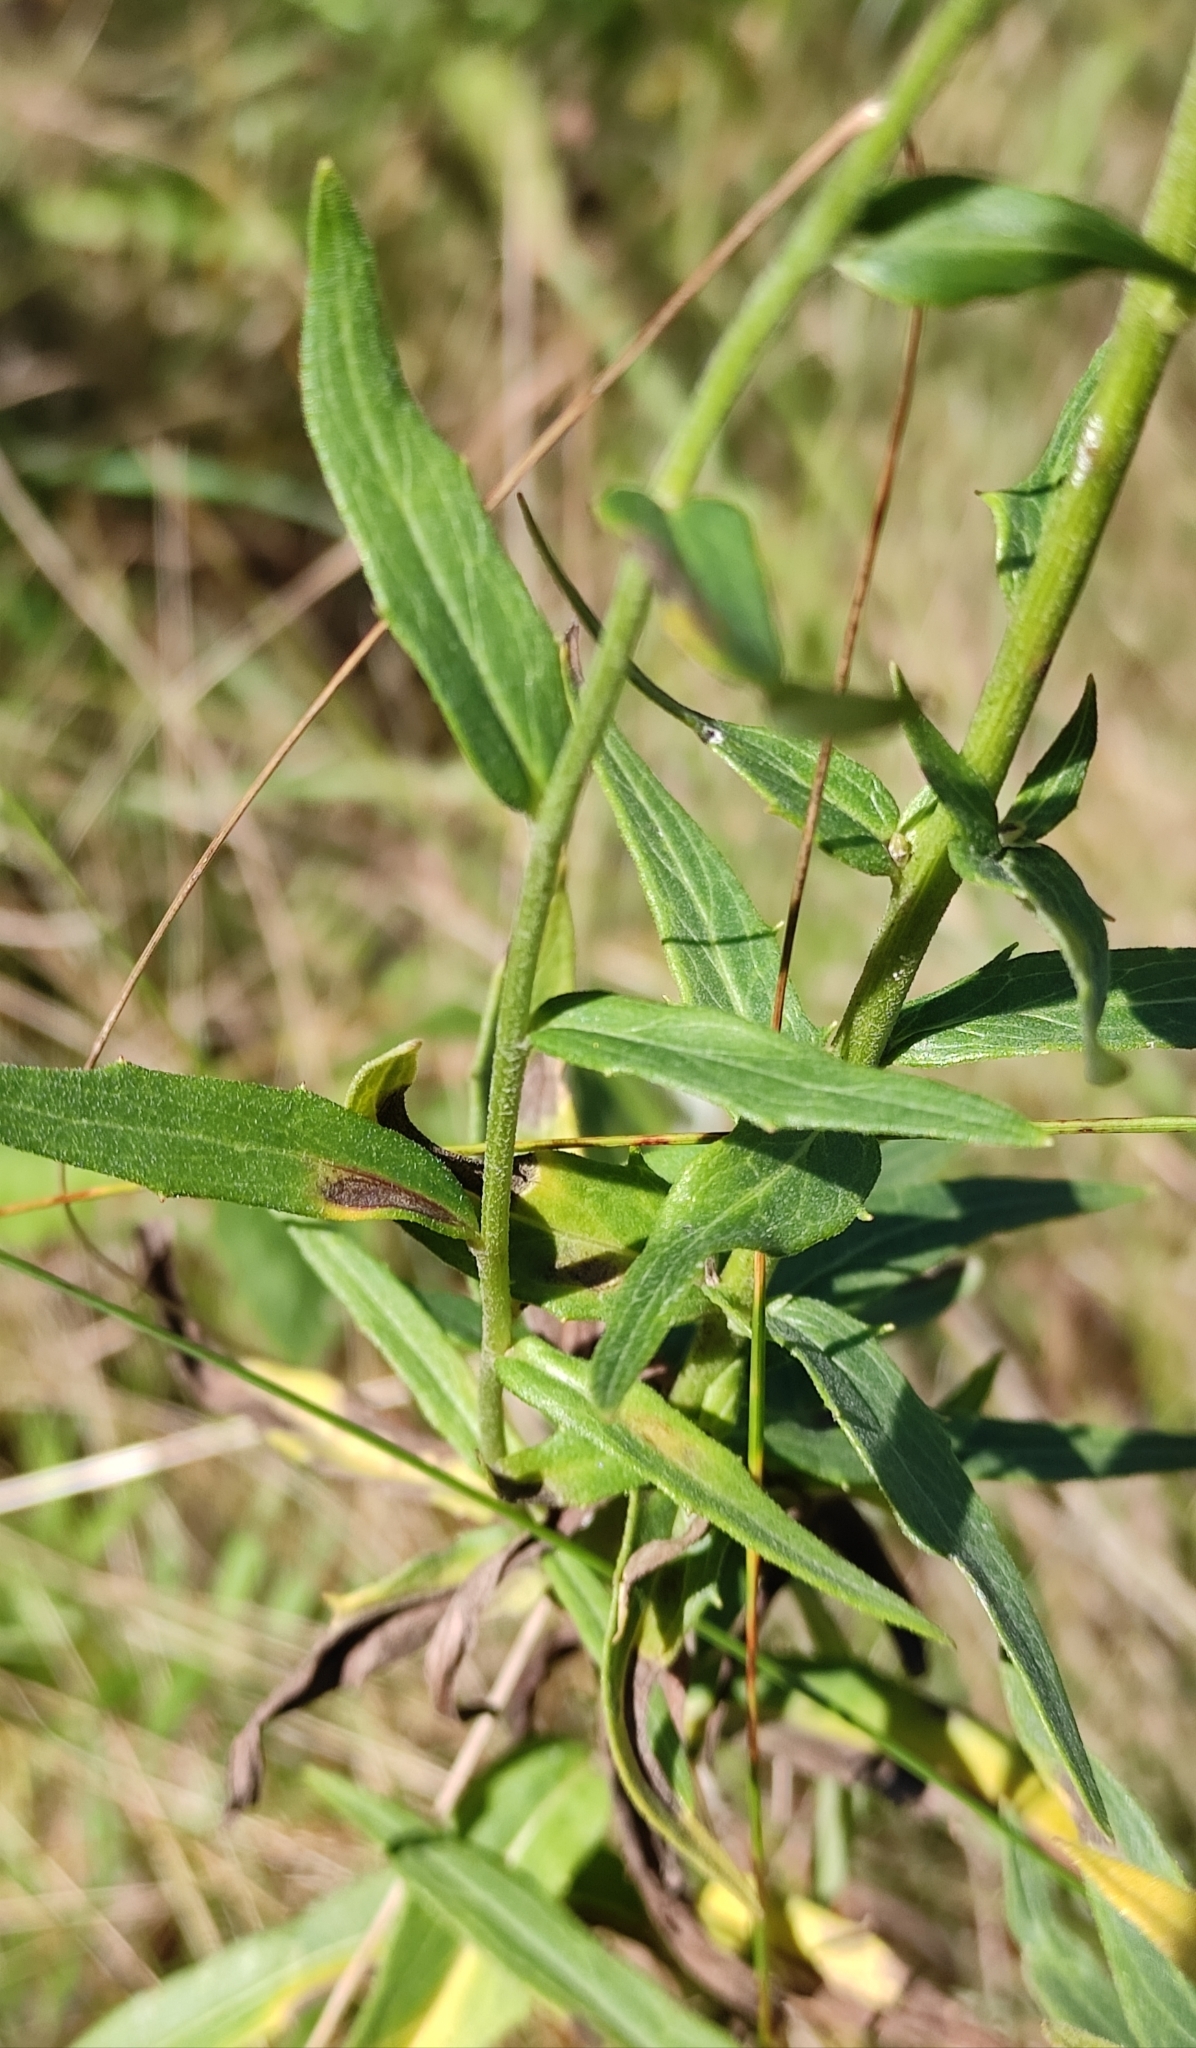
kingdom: Plantae
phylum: Tracheophyta
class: Magnoliopsida
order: Asterales
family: Asteraceae
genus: Hieracium
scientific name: Hieracium umbellatum
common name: Northern hawkweed
